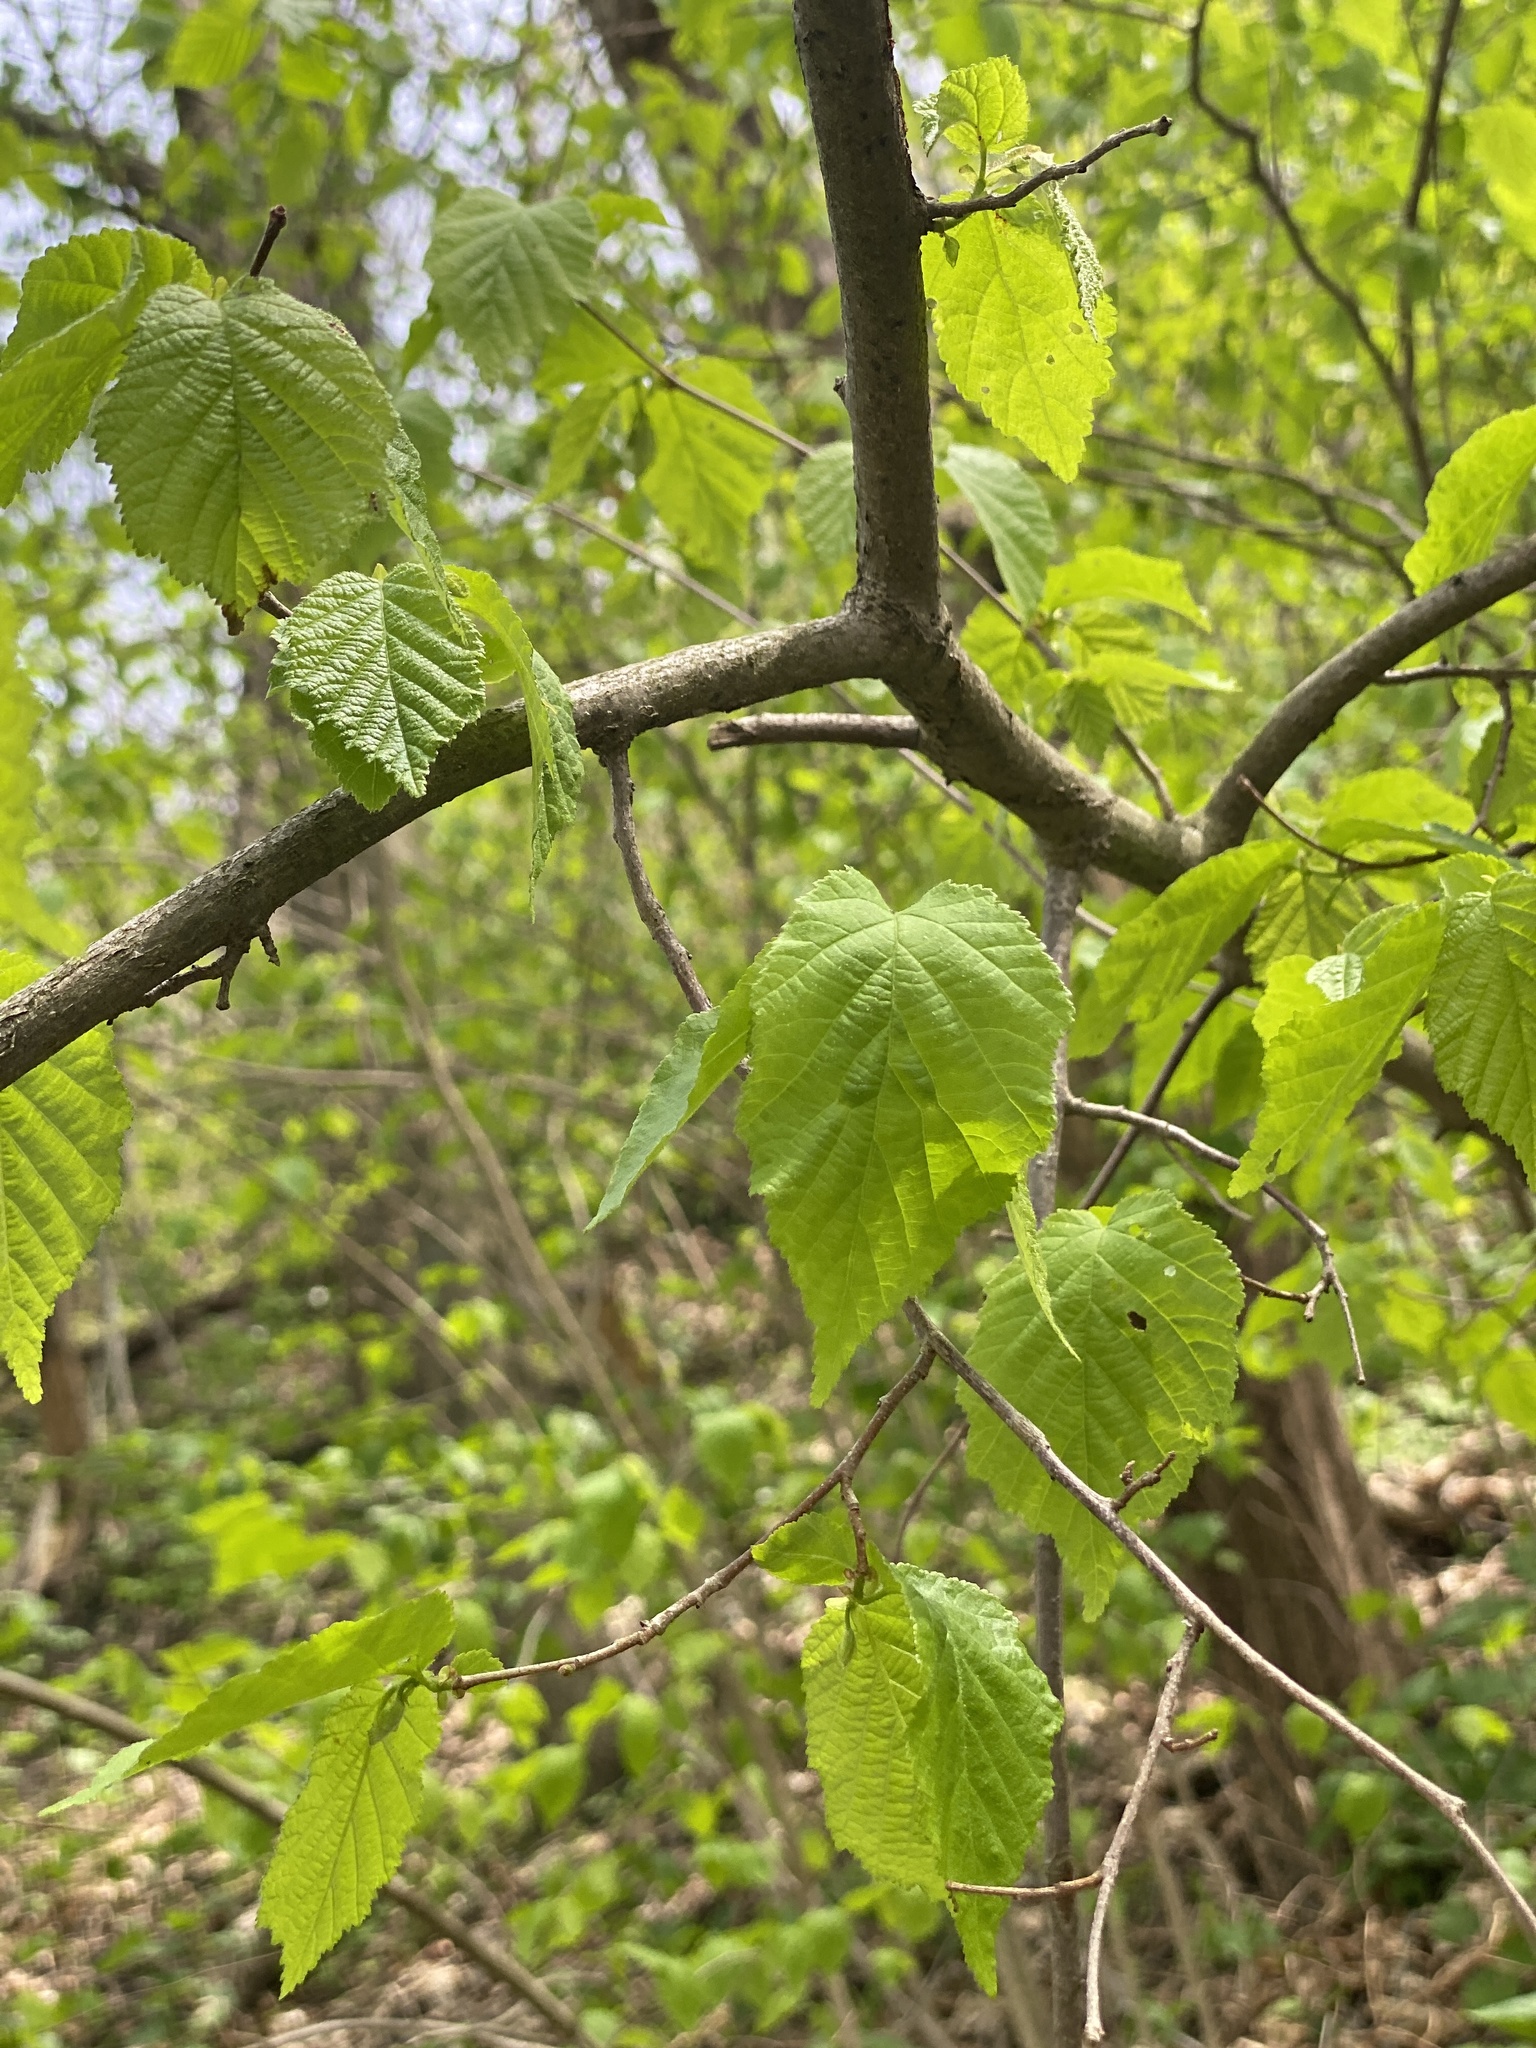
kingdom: Plantae
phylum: Tracheophyta
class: Magnoliopsida
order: Fagales
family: Betulaceae
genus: Corylus
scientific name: Corylus americana
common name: American hazel
